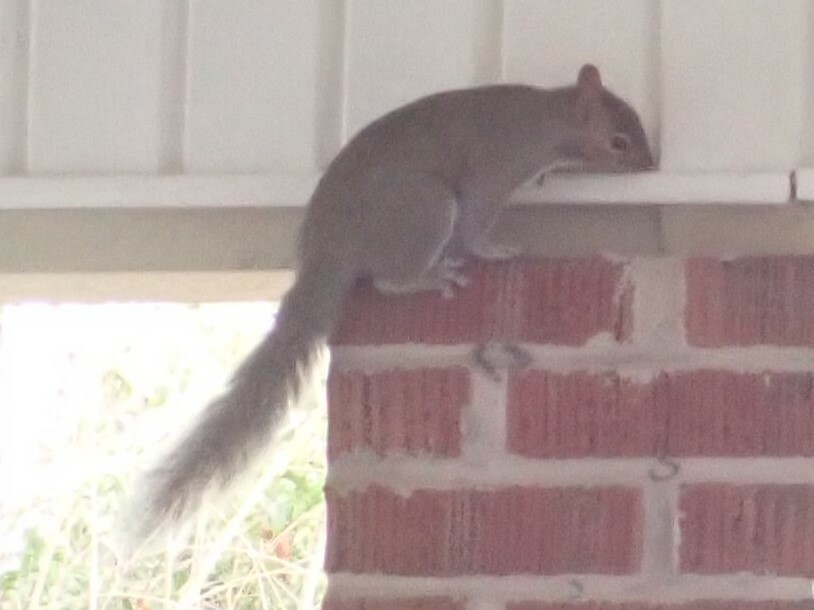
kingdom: Animalia
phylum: Chordata
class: Mammalia
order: Rodentia
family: Sciuridae
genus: Sciurus
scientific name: Sciurus carolinensis
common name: Eastern gray squirrel
